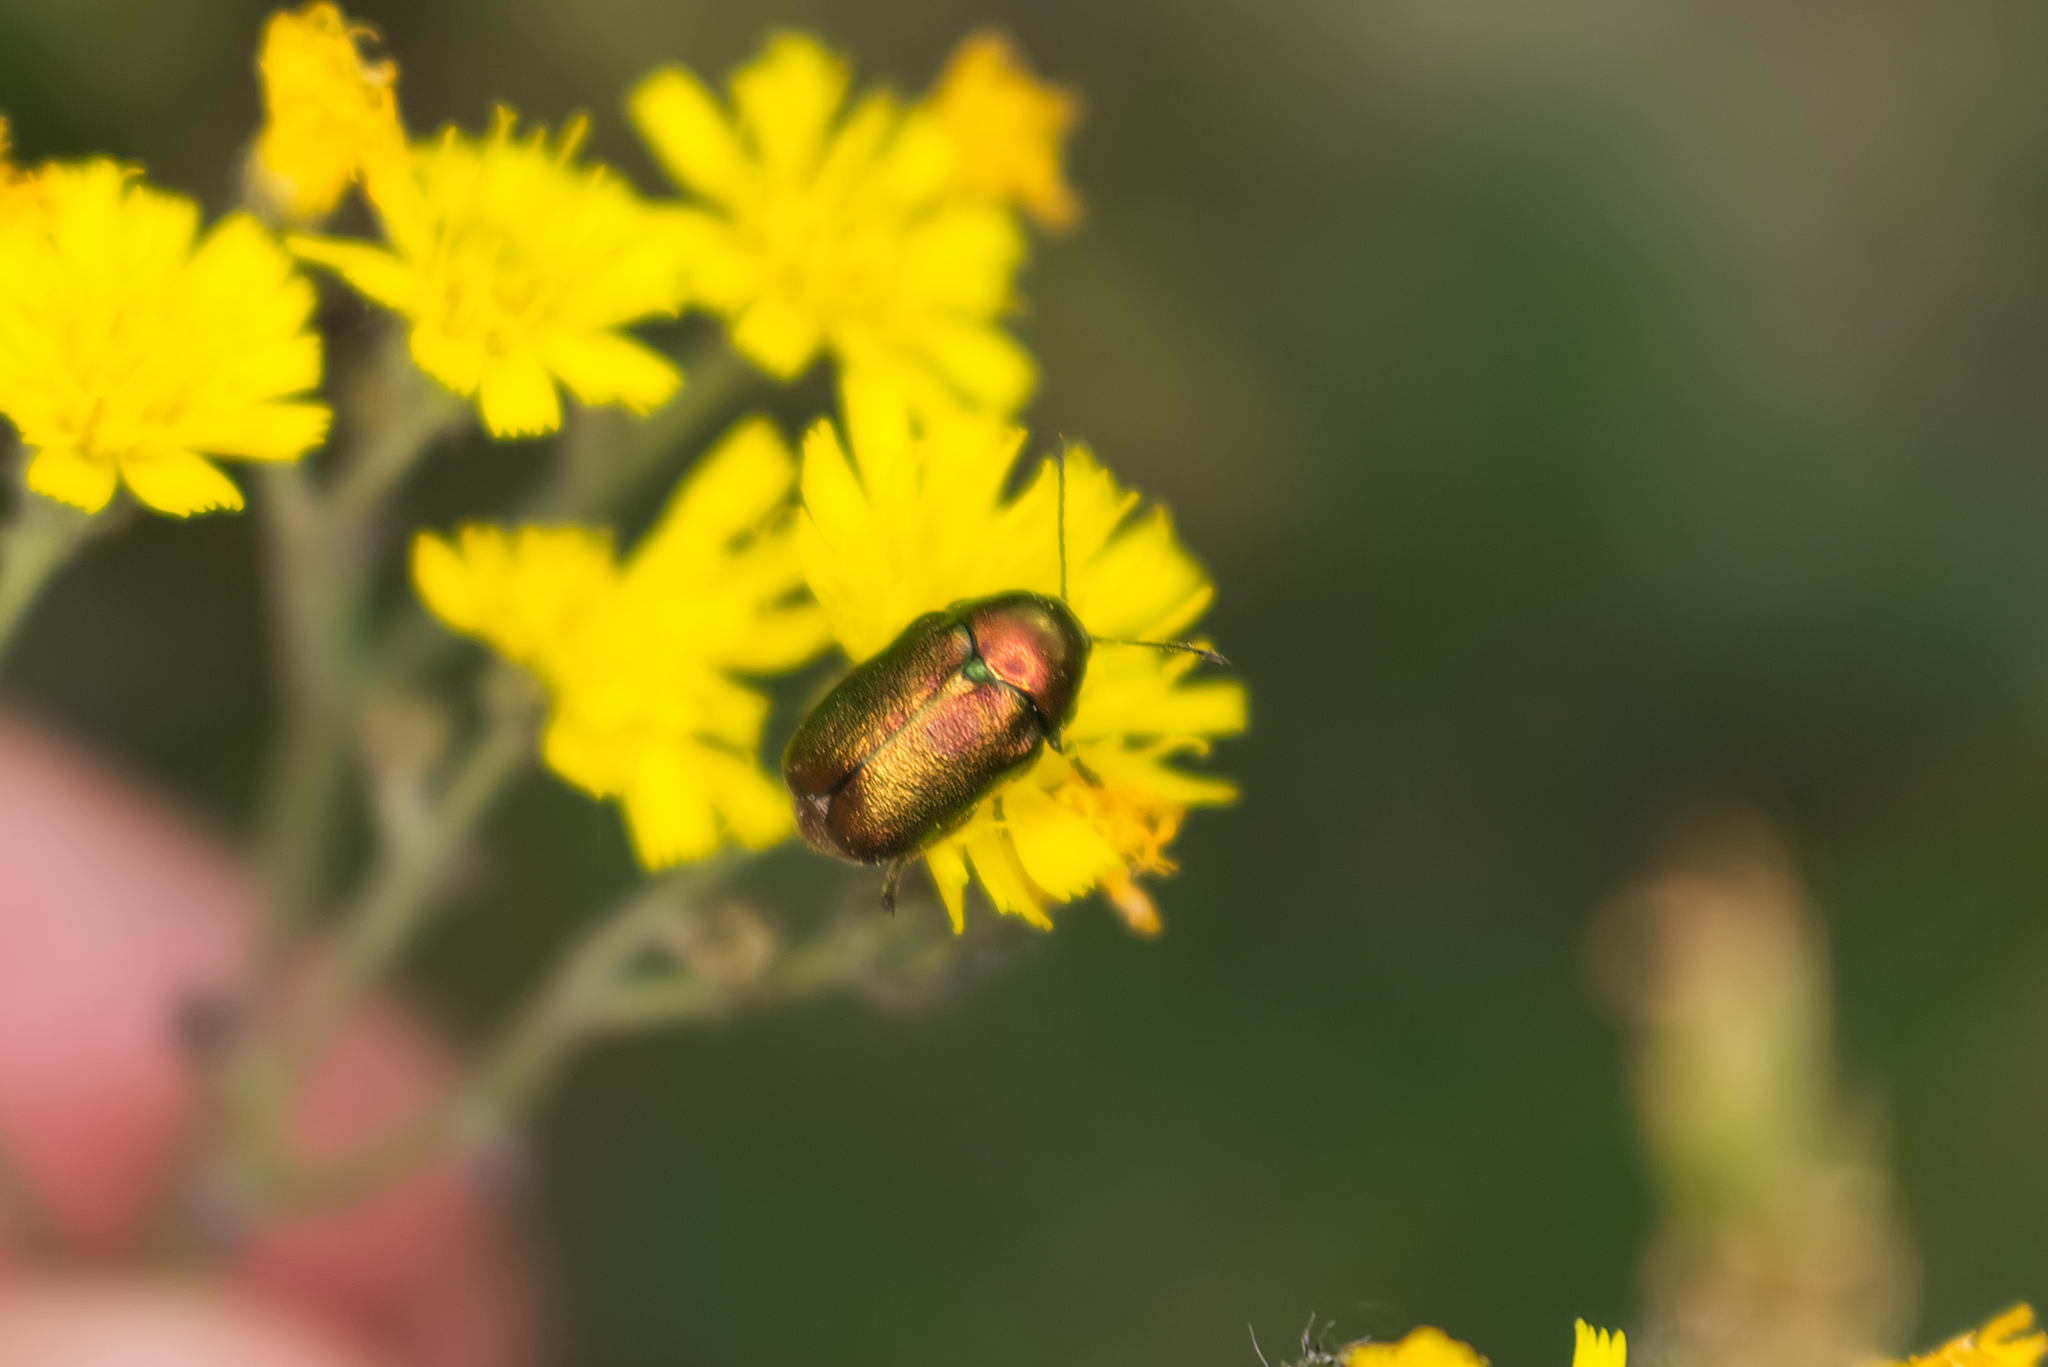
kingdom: Animalia
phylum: Arthropoda
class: Insecta
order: Coleoptera
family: Chrysomelidae
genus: Cryptocephalus
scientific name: Cryptocephalus
